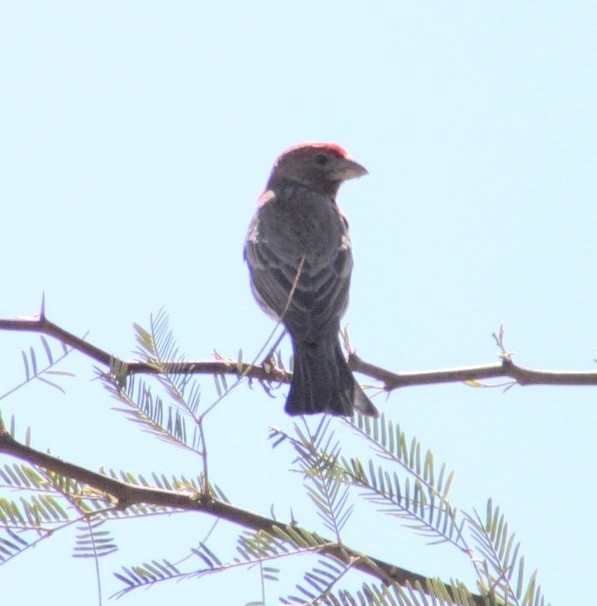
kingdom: Animalia
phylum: Chordata
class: Aves
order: Passeriformes
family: Fringillidae
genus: Haemorhous
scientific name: Haemorhous mexicanus
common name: House finch
